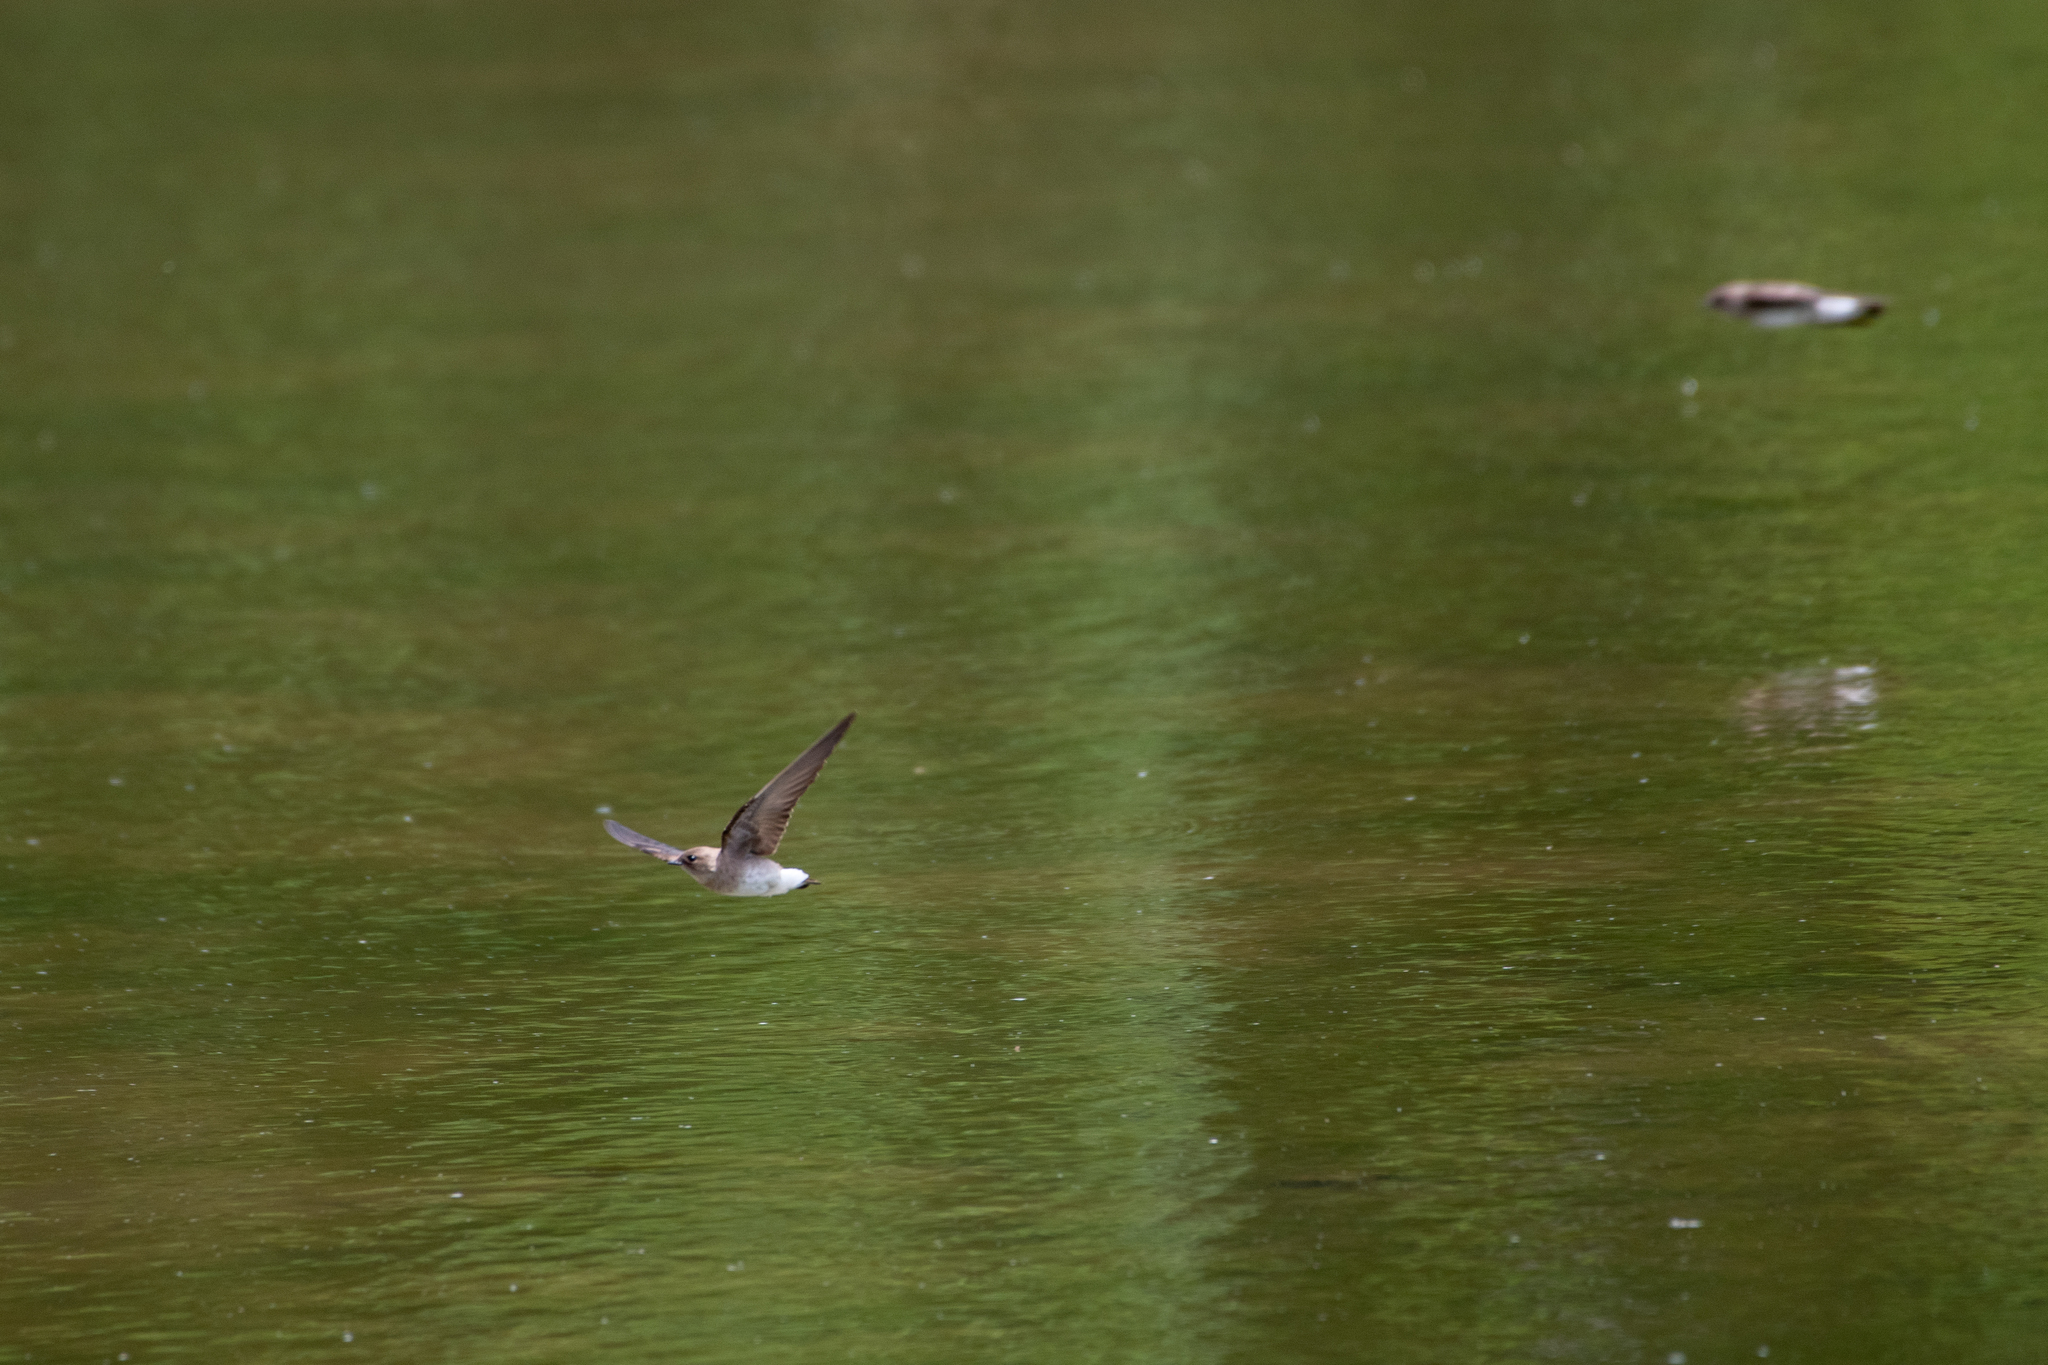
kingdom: Animalia
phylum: Chordata
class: Aves
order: Passeriformes
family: Hirundinidae
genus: Stelgidopteryx
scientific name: Stelgidopteryx serripennis
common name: Northern rough-winged swallow
